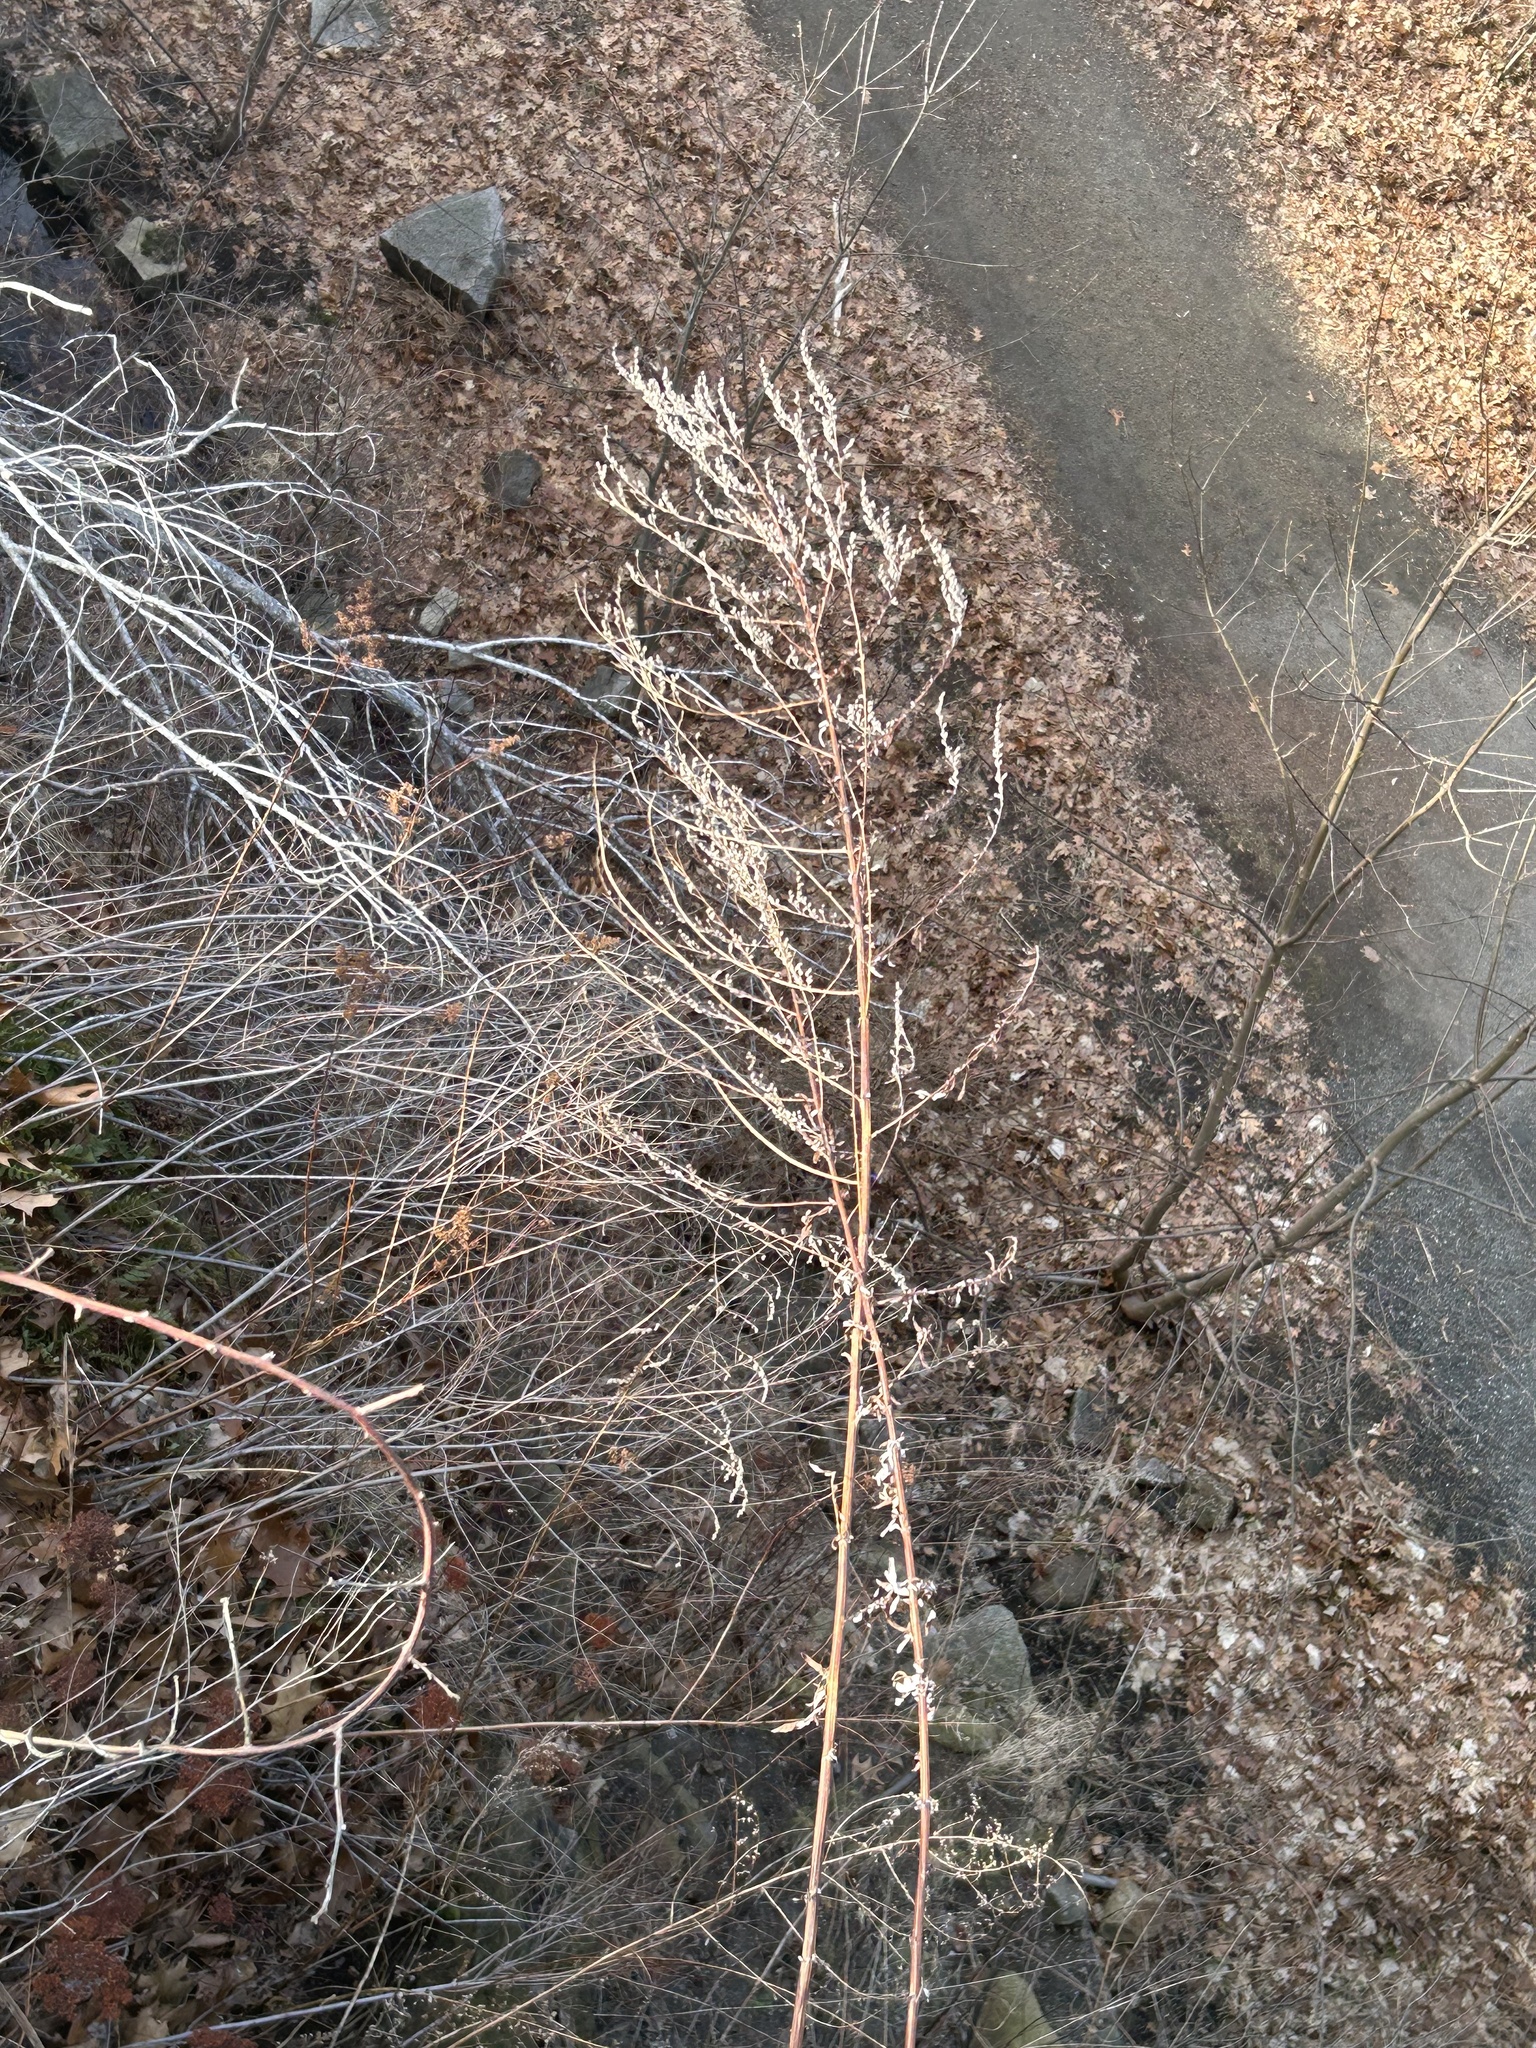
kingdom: Plantae
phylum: Tracheophyta
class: Magnoliopsida
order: Asterales
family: Asteraceae
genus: Artemisia
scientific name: Artemisia vulgaris
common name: Mugwort
